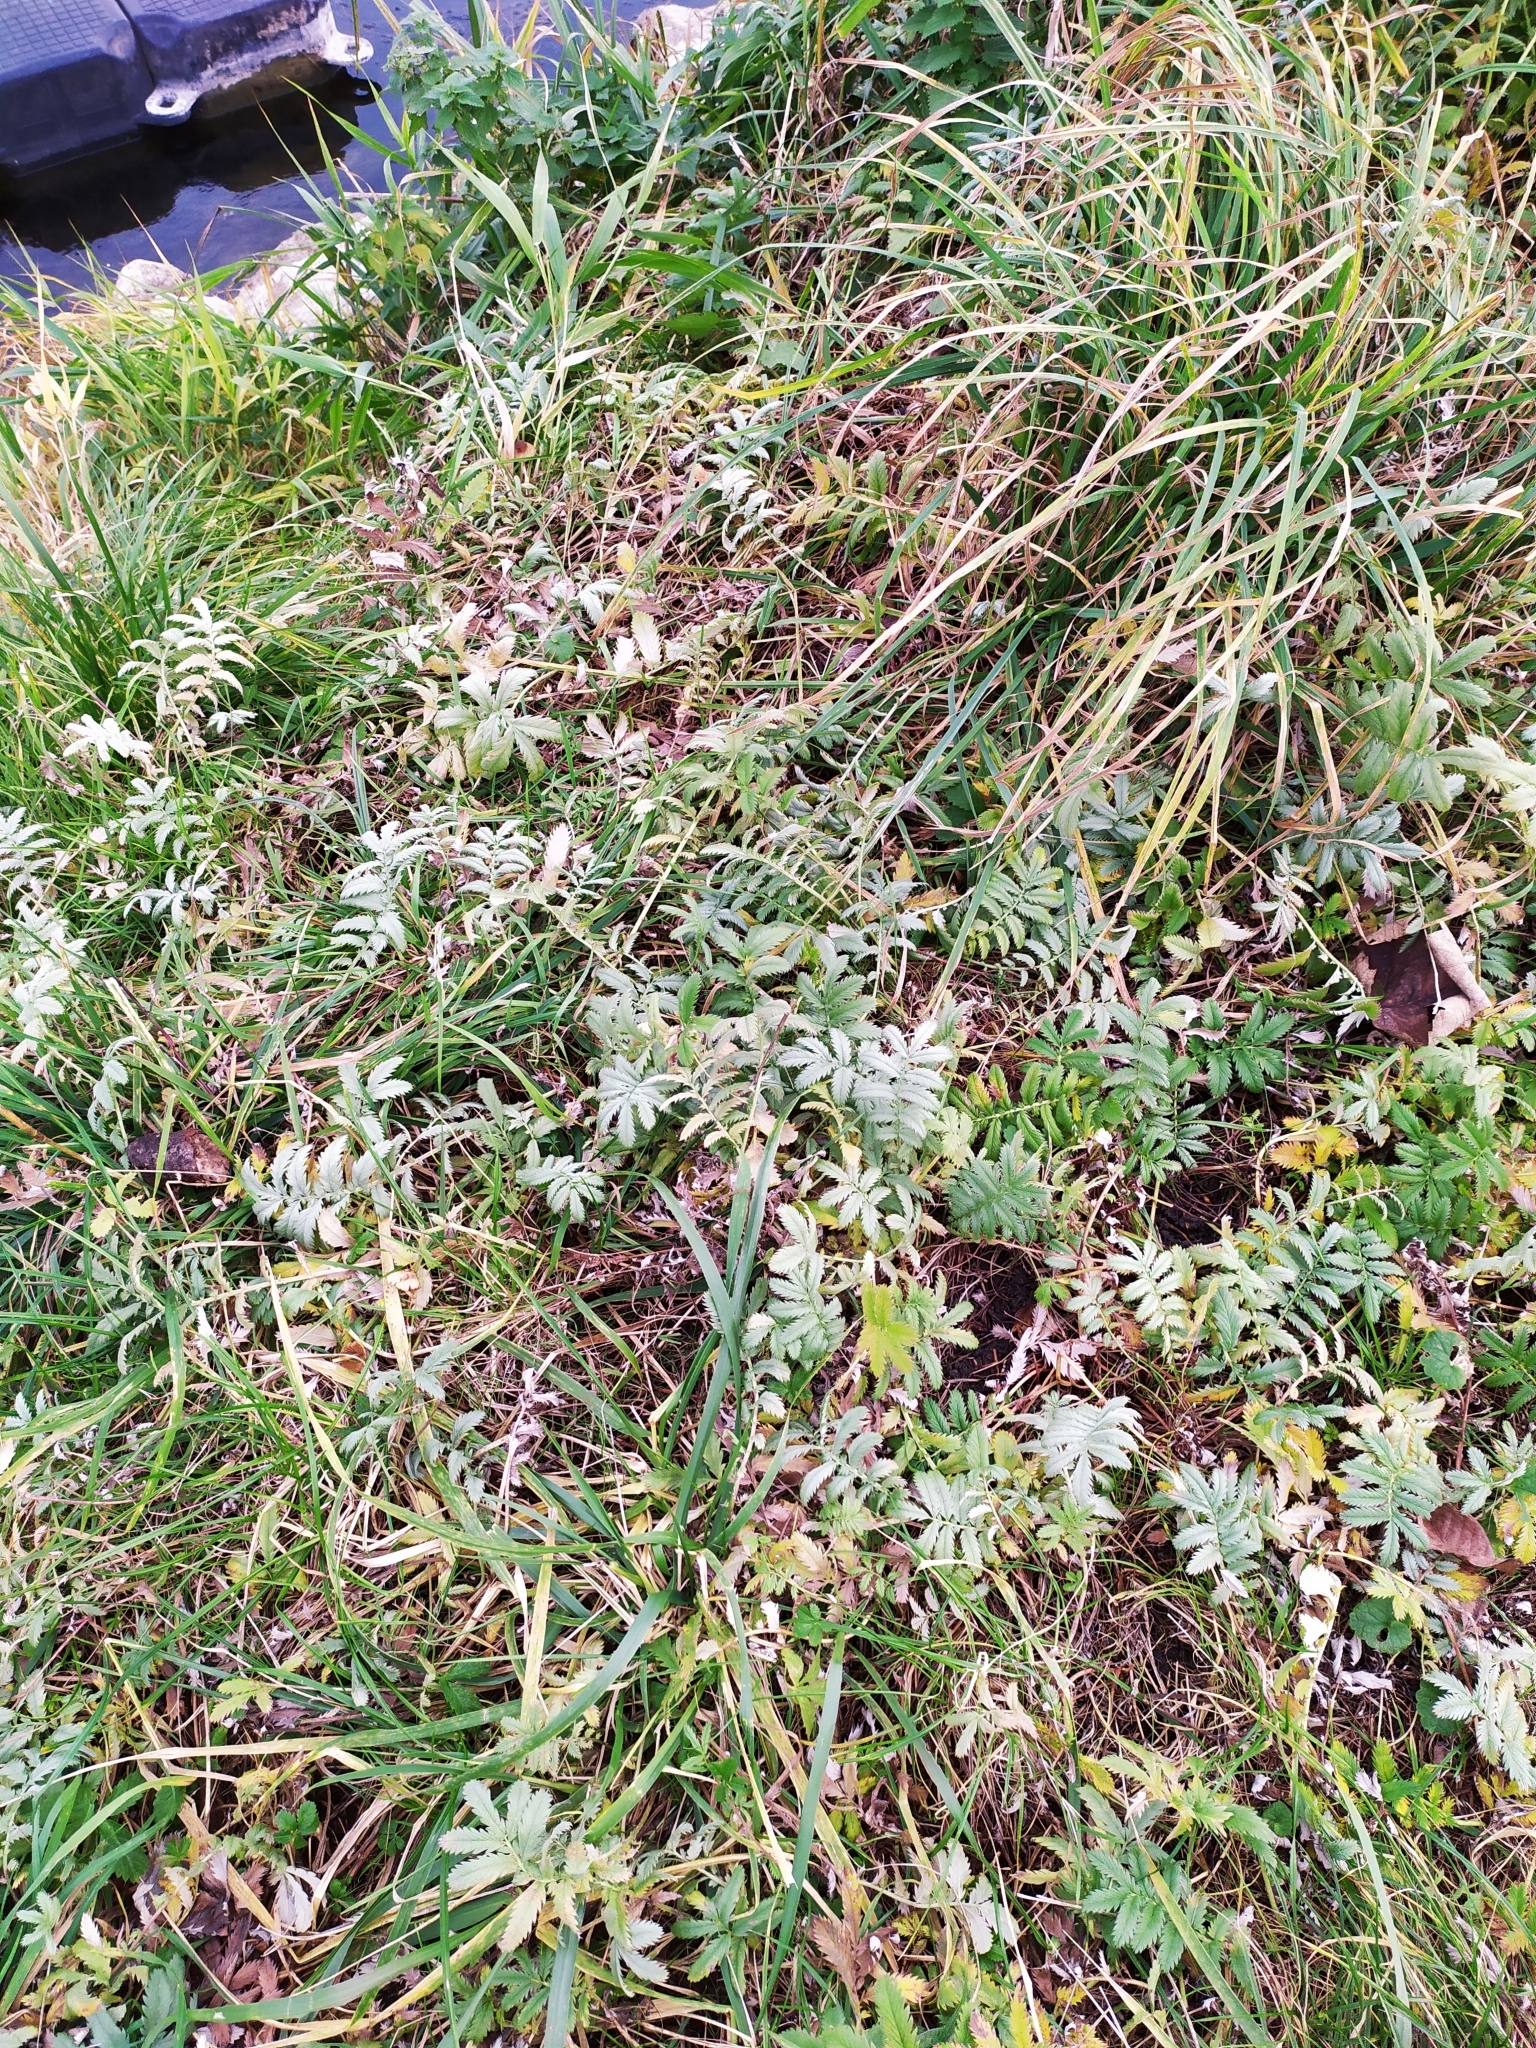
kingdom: Plantae
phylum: Tracheophyta
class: Magnoliopsida
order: Rosales
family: Rosaceae
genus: Argentina
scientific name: Argentina anserina
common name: Common silverweed
